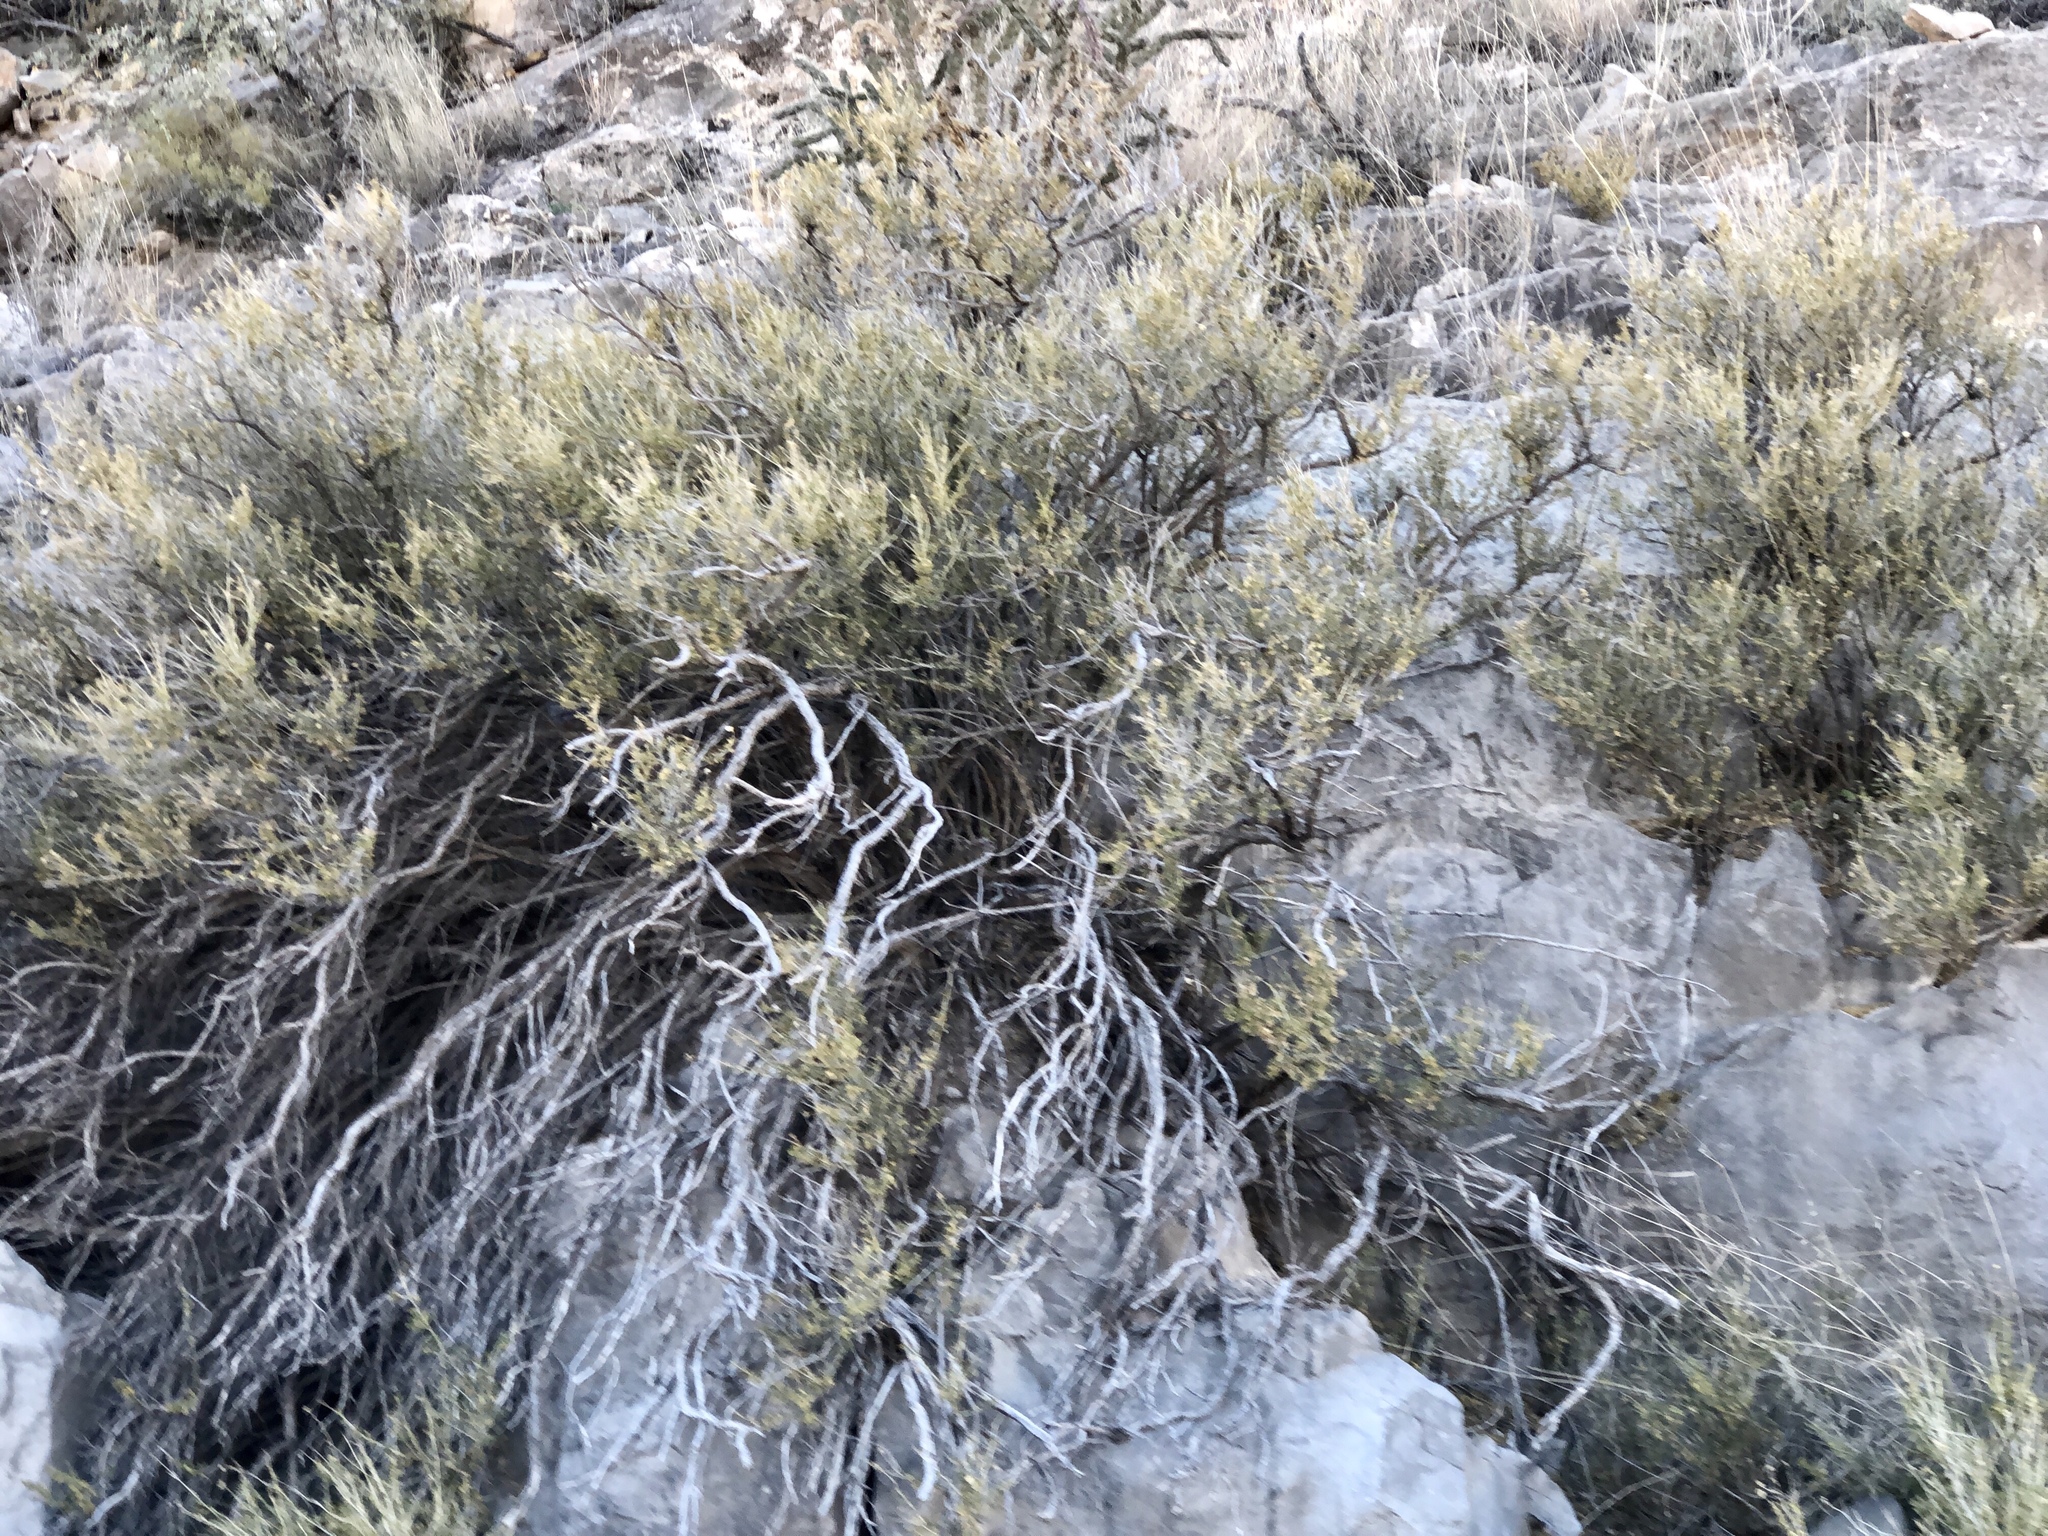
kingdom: Plantae
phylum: Tracheophyta
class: Magnoliopsida
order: Rosales
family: Rosaceae
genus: Fallugia
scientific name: Fallugia paradoxa
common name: Apache-plume
